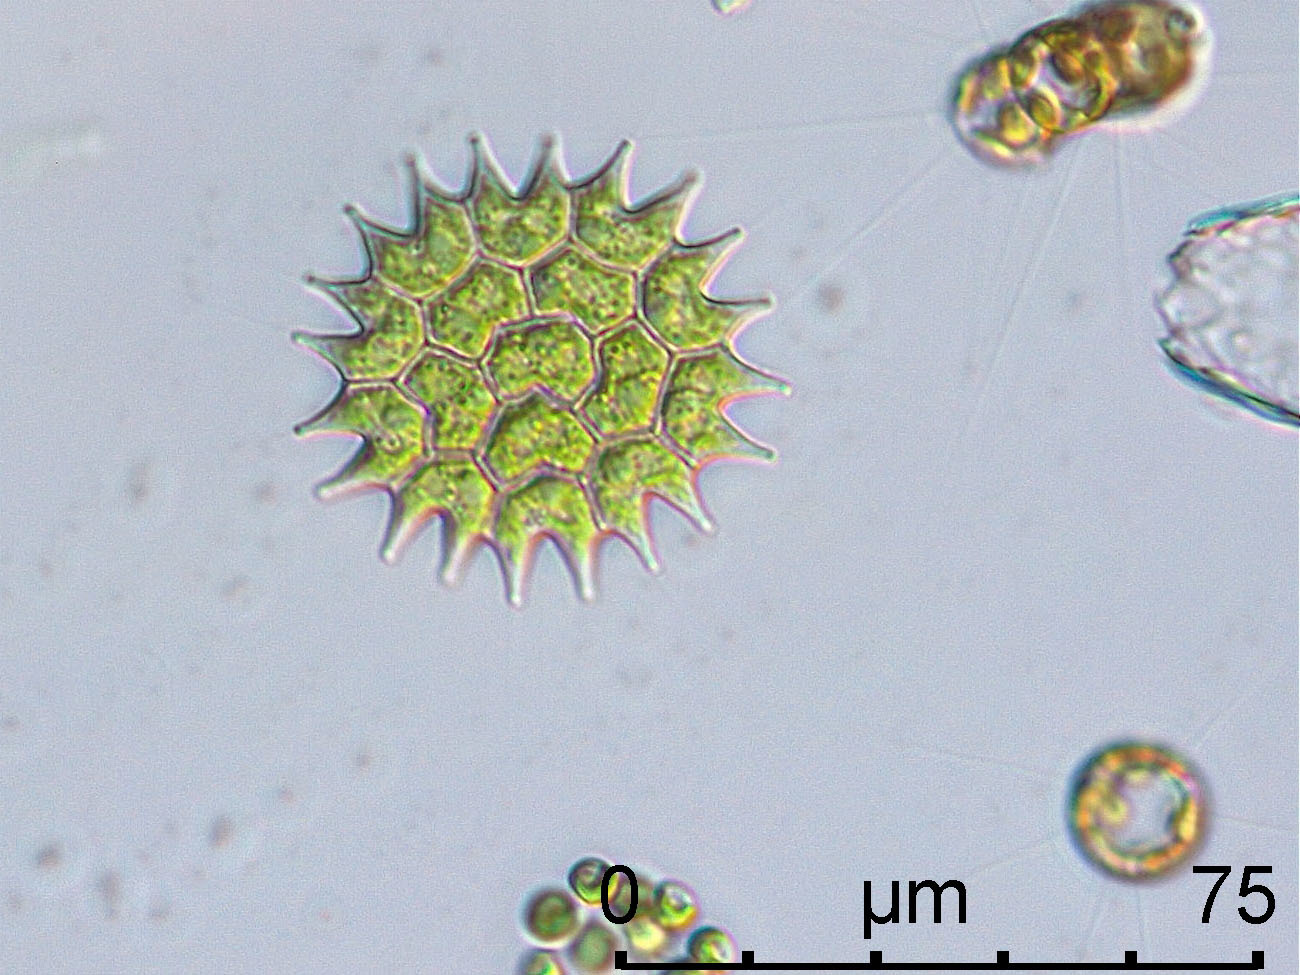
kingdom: Plantae
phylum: Chlorophyta
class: Chlorophyceae
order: Sphaeropleales
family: Hydrodictyaceae
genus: Pseudopediastrum
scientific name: Pseudopediastrum boryanum
